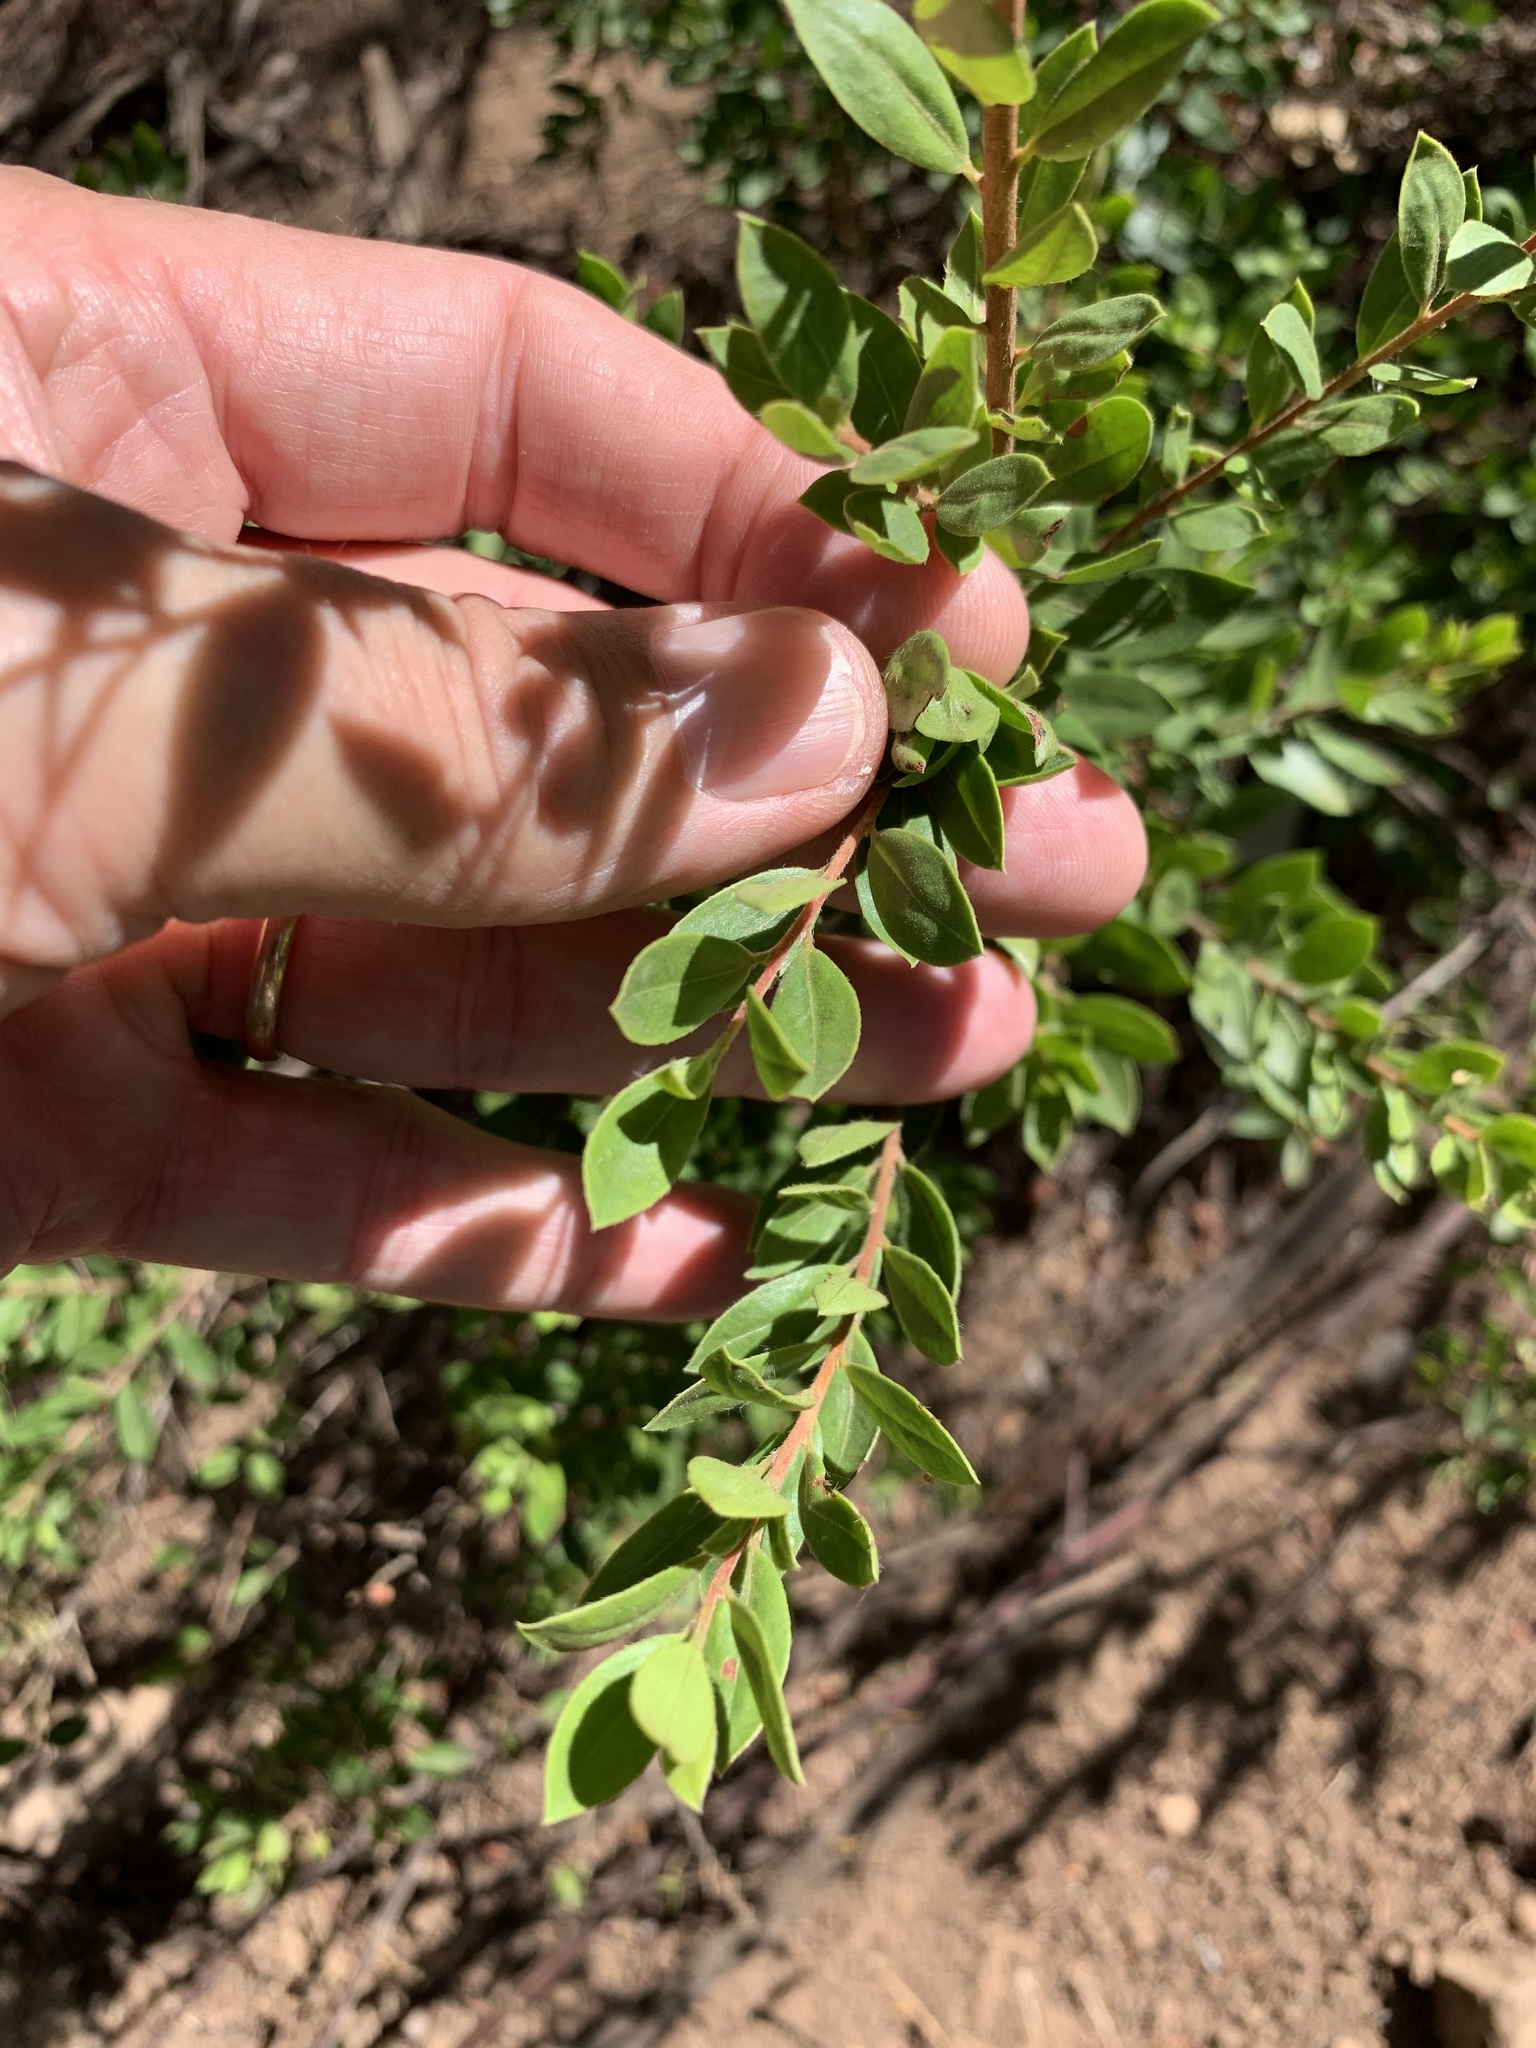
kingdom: Plantae
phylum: Tracheophyta
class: Magnoliopsida
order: Ericales
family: Ebenaceae
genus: Diospyros
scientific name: Diospyros glabra
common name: Fynbos star apple
